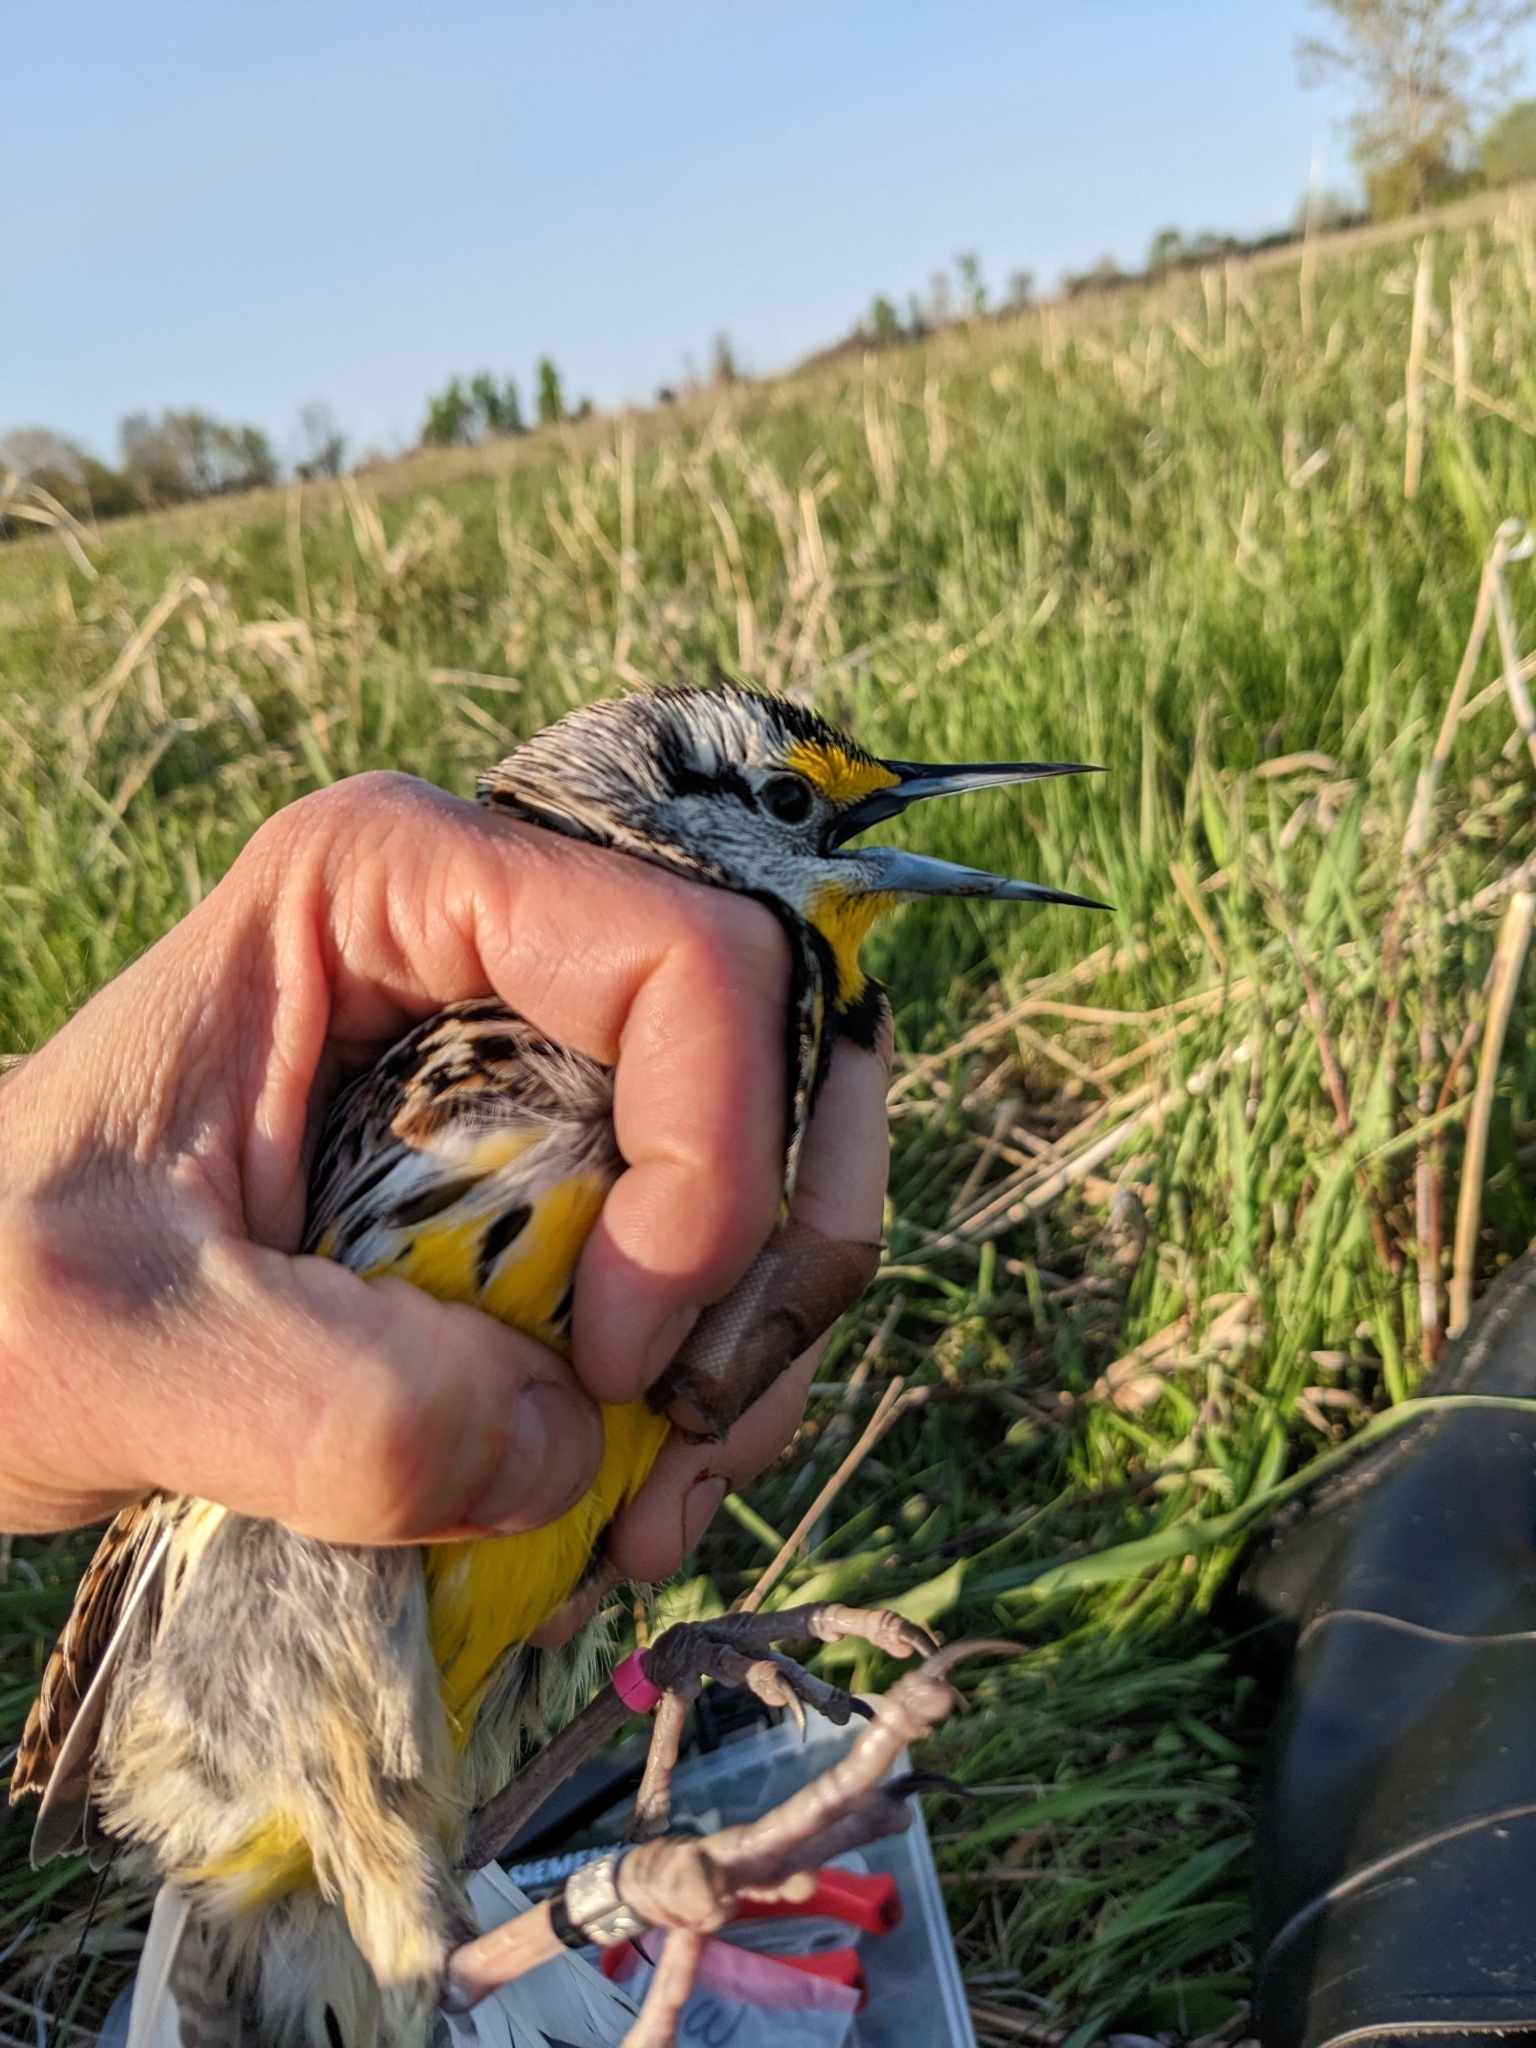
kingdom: Animalia
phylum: Chordata
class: Aves
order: Passeriformes
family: Icteridae
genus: Sturnella
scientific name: Sturnella magna
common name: Eastern meadowlark
